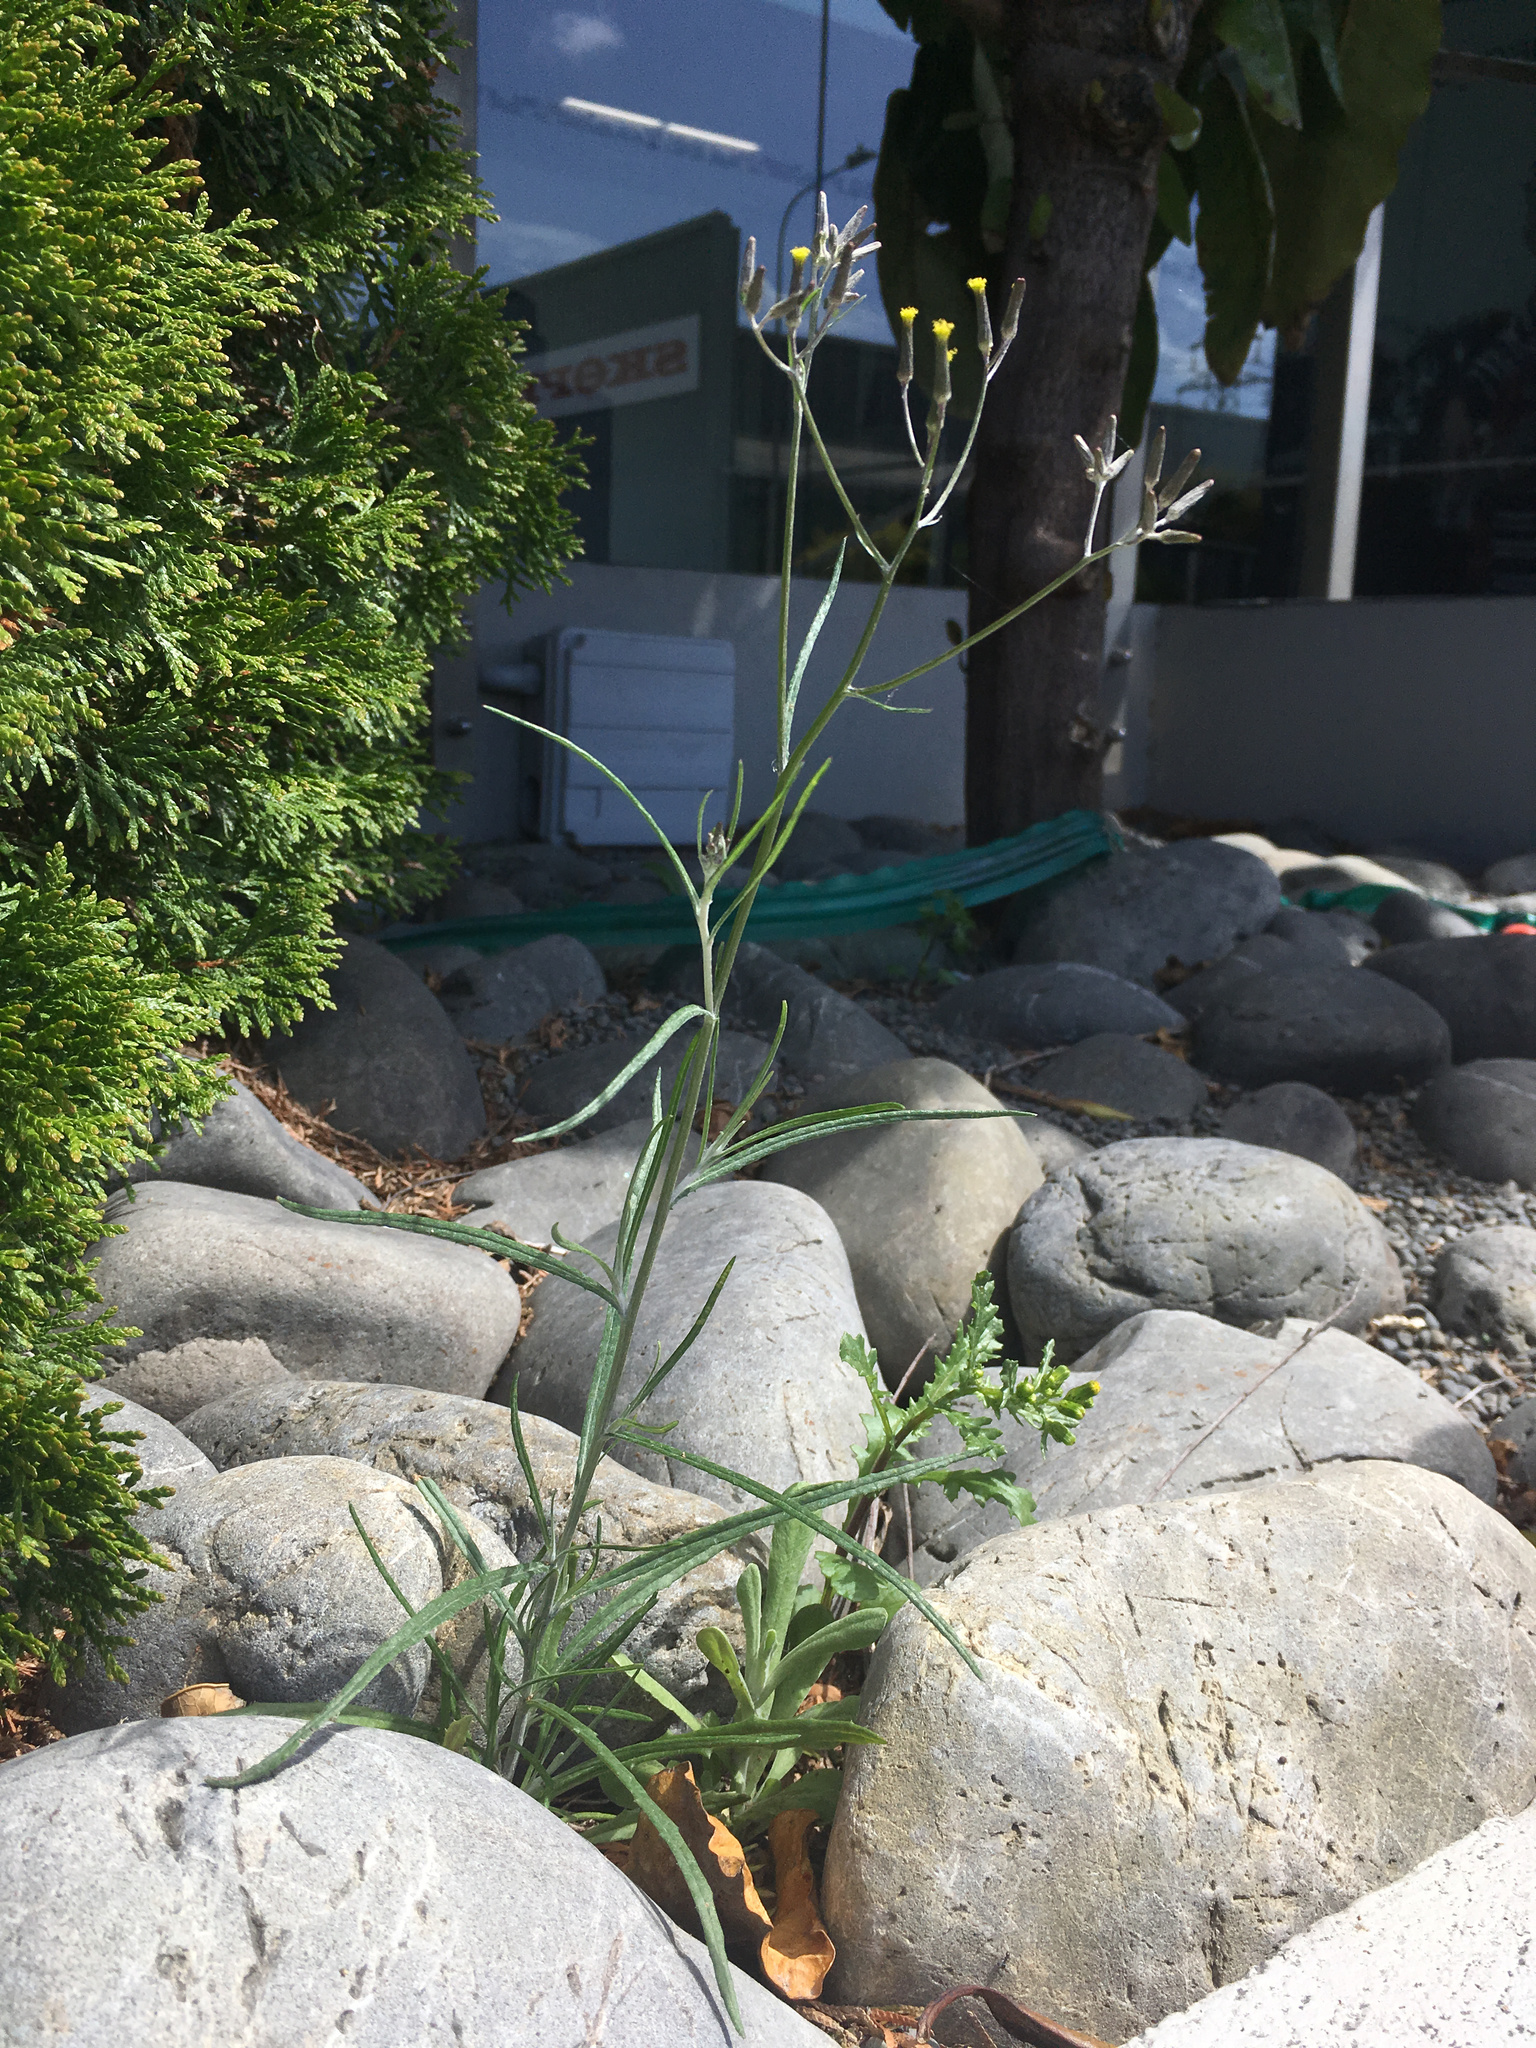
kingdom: Plantae
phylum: Tracheophyta
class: Magnoliopsida
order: Asterales
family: Asteraceae
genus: Senecio
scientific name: Senecio quadridentatus
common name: Cotton fireweed
